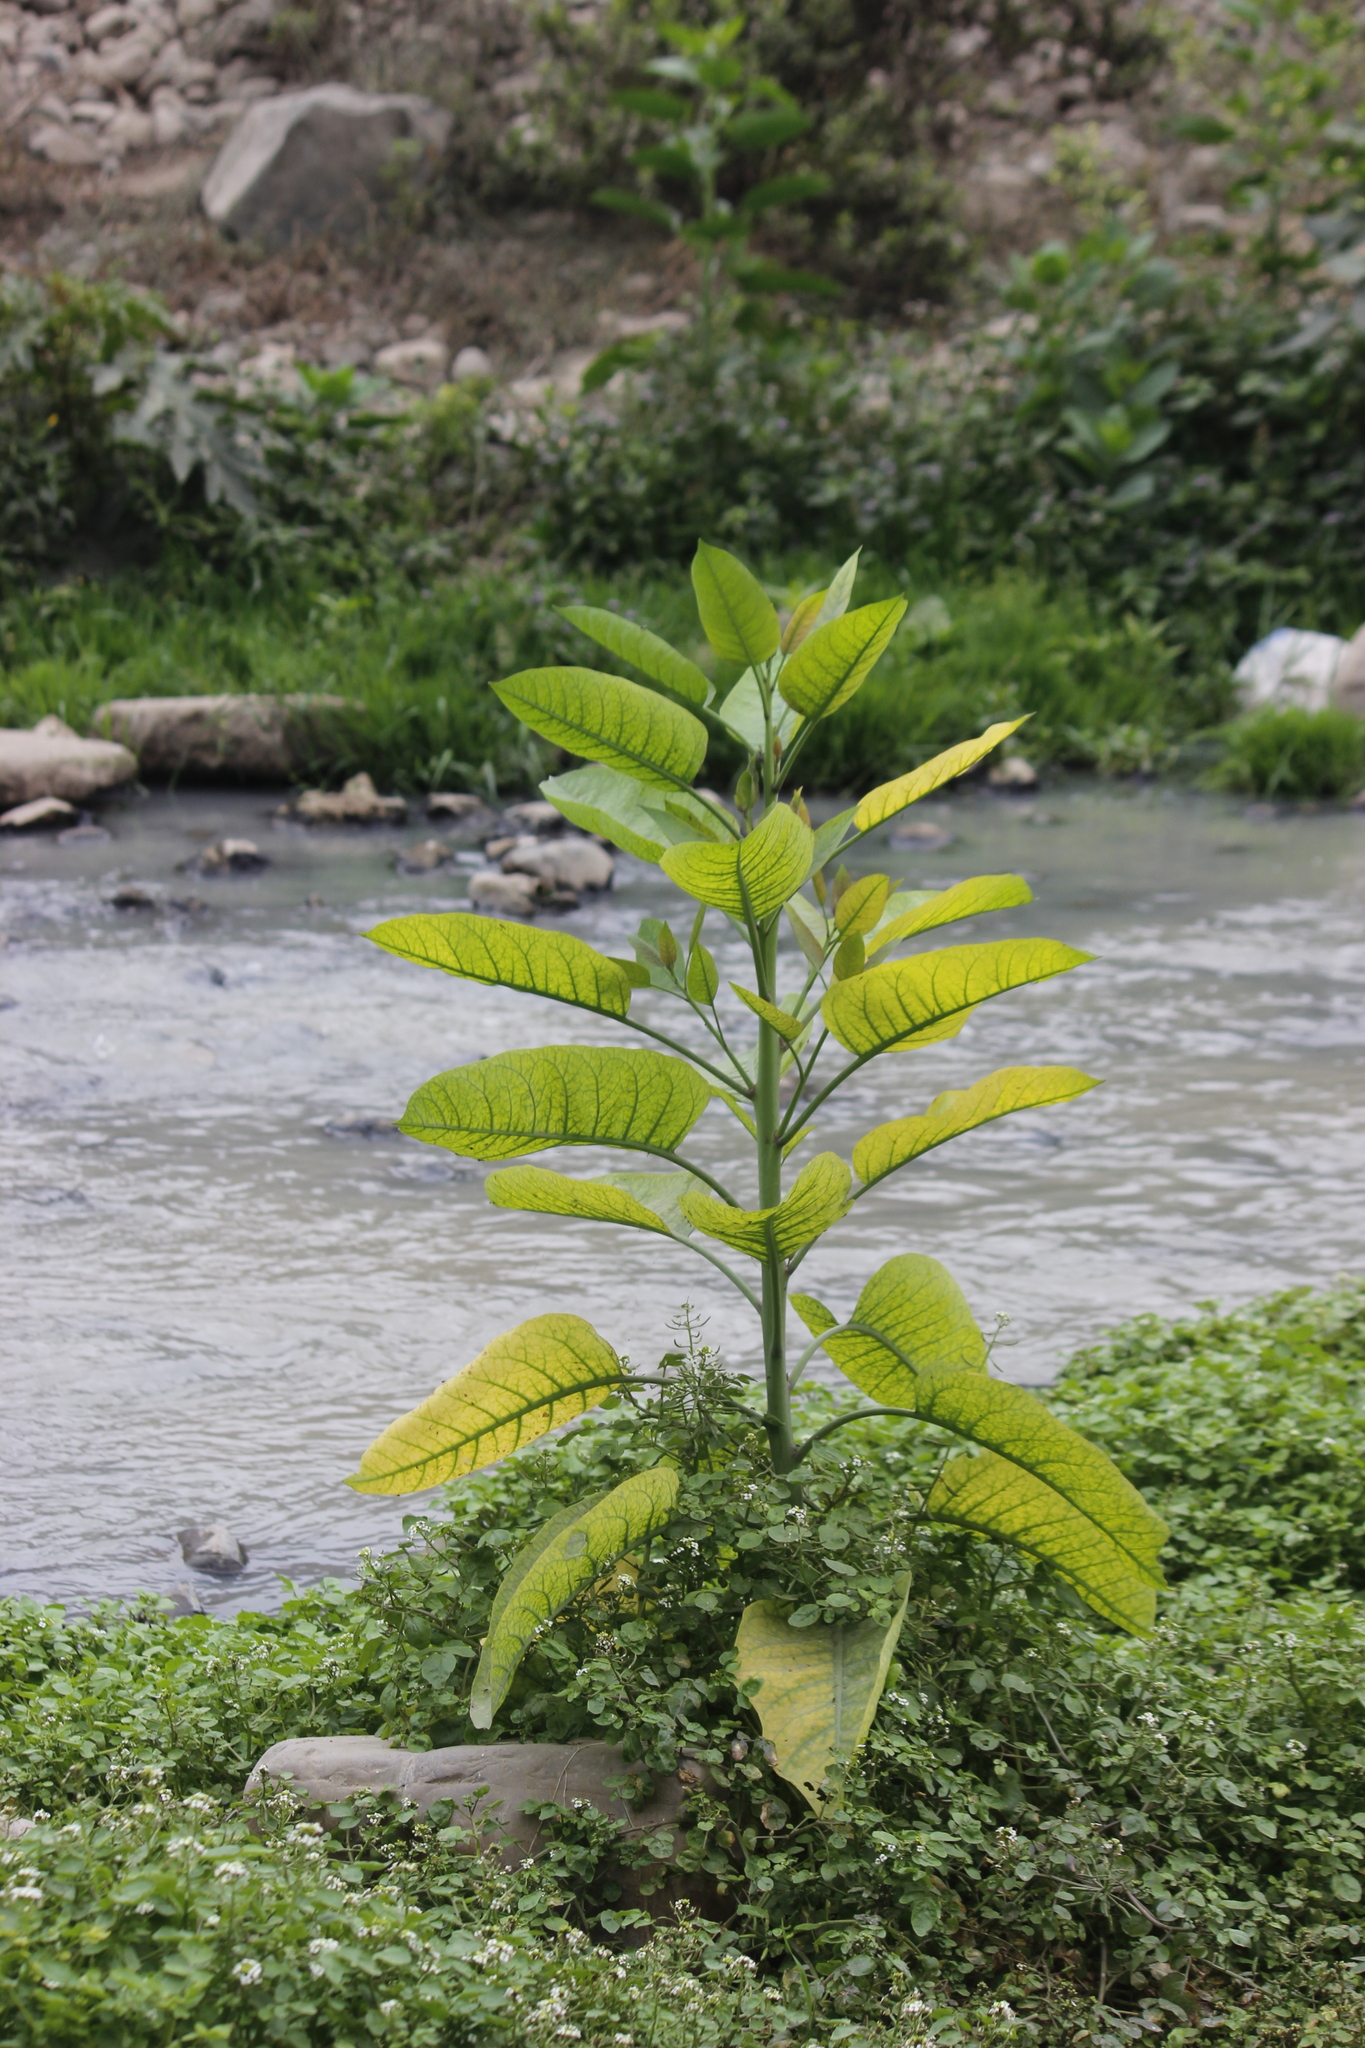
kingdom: Plantae
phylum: Tracheophyta
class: Magnoliopsida
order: Solanales
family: Solanaceae
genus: Nicotiana
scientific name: Nicotiana glauca
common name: Tree tobacco
